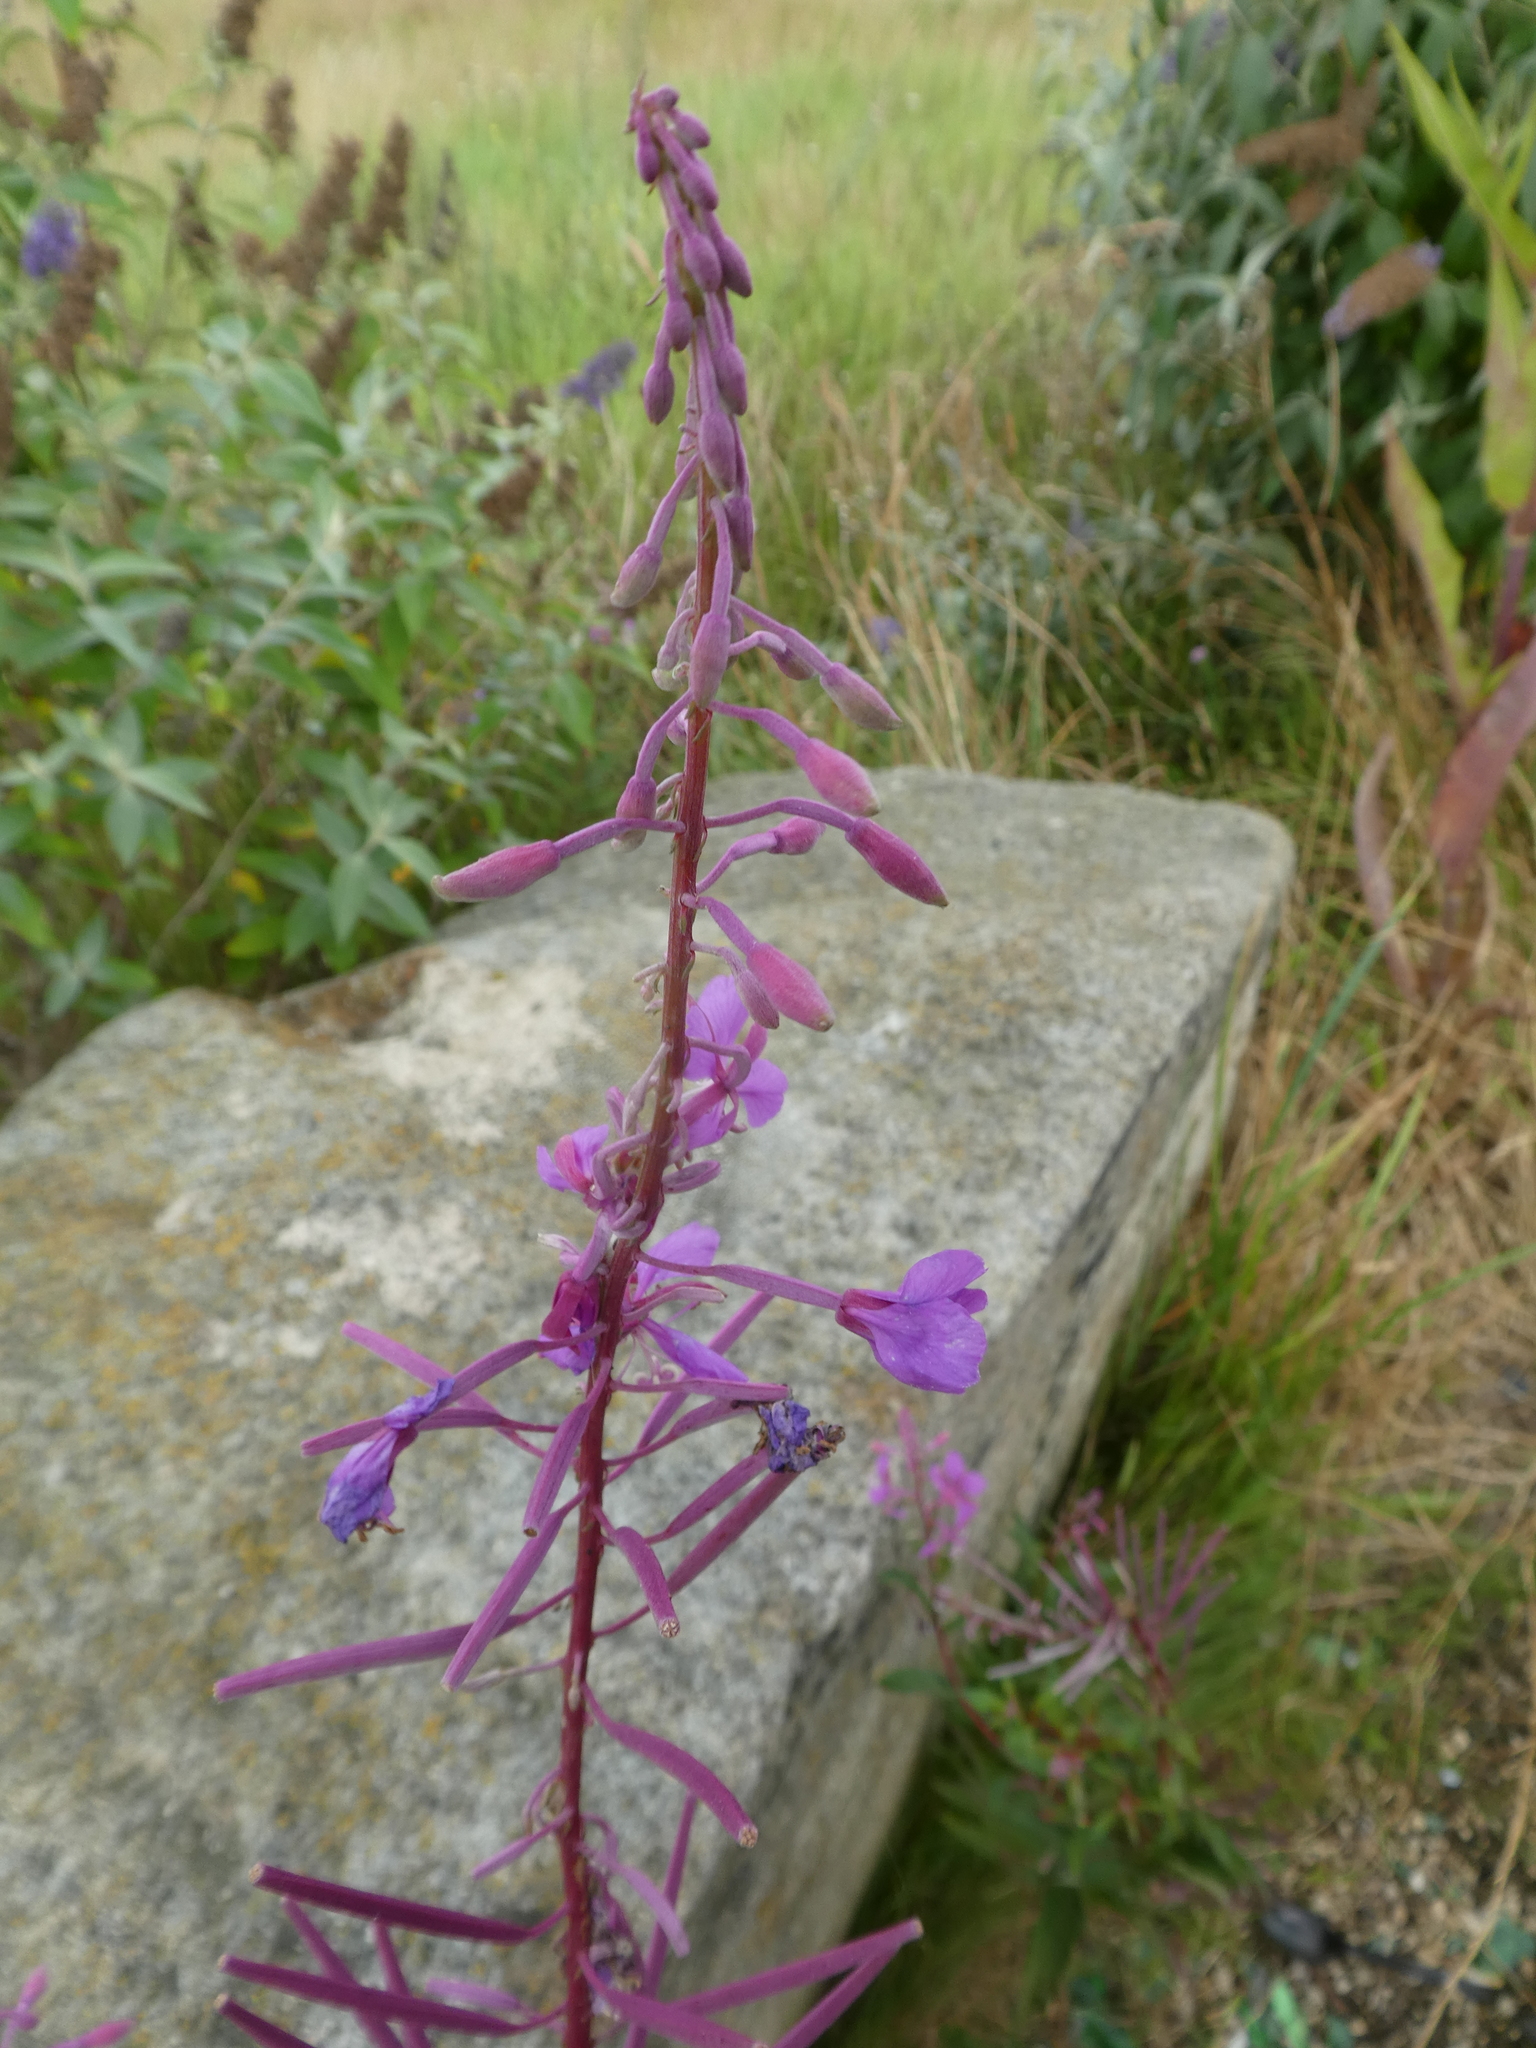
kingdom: Plantae
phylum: Tracheophyta
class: Magnoliopsida
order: Myrtales
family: Onagraceae
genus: Chamaenerion
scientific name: Chamaenerion angustifolium
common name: Fireweed
